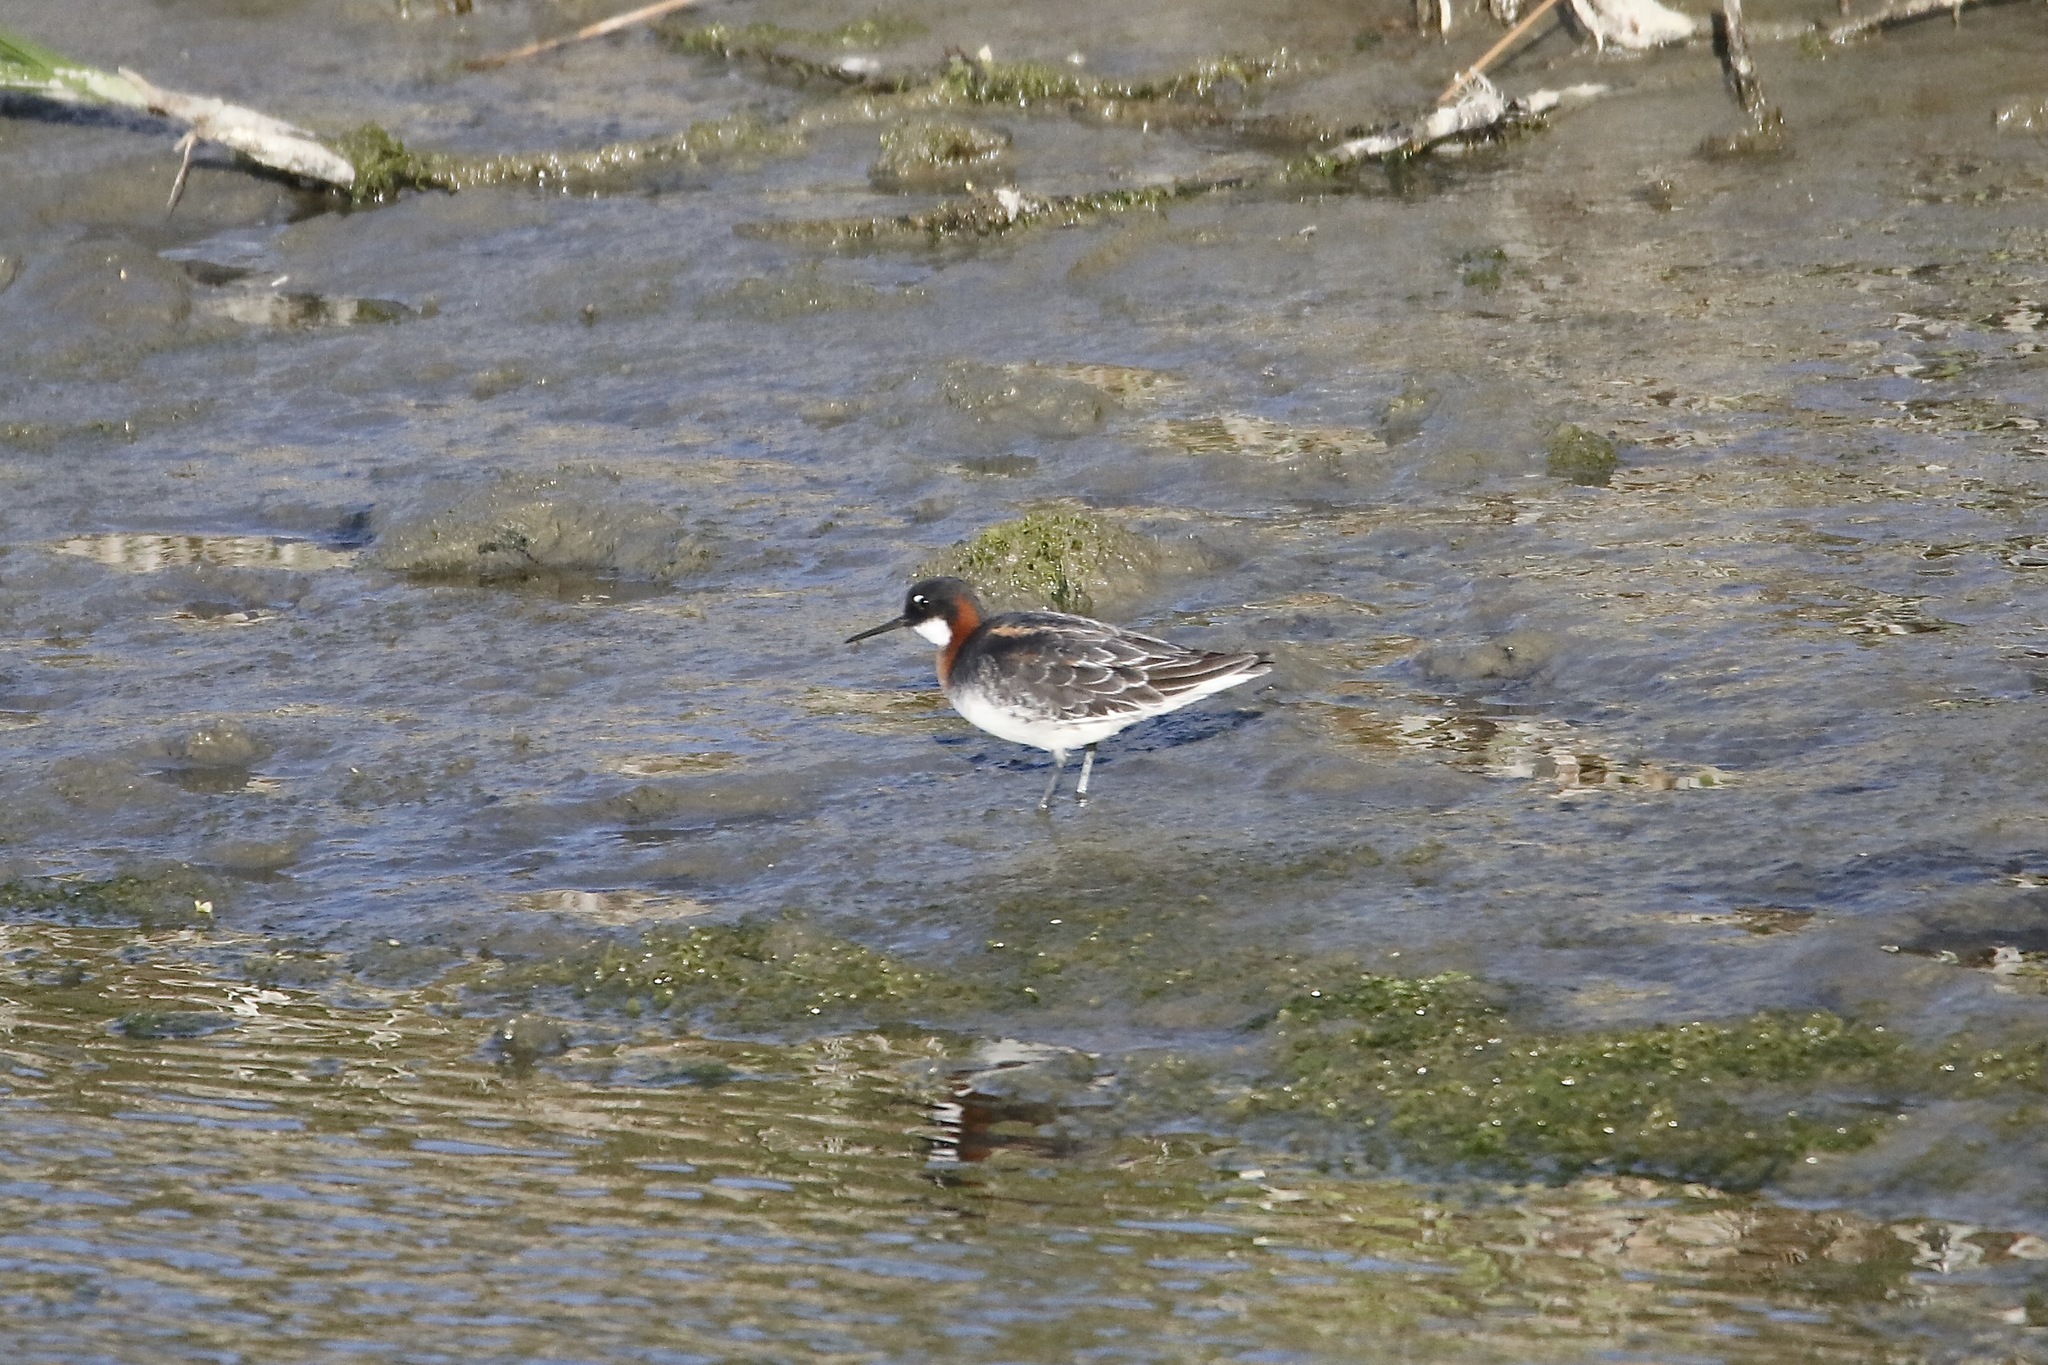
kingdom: Animalia
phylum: Chordata
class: Aves
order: Charadriiformes
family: Scolopacidae
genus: Phalaropus
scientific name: Phalaropus lobatus
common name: Red-necked phalarope
